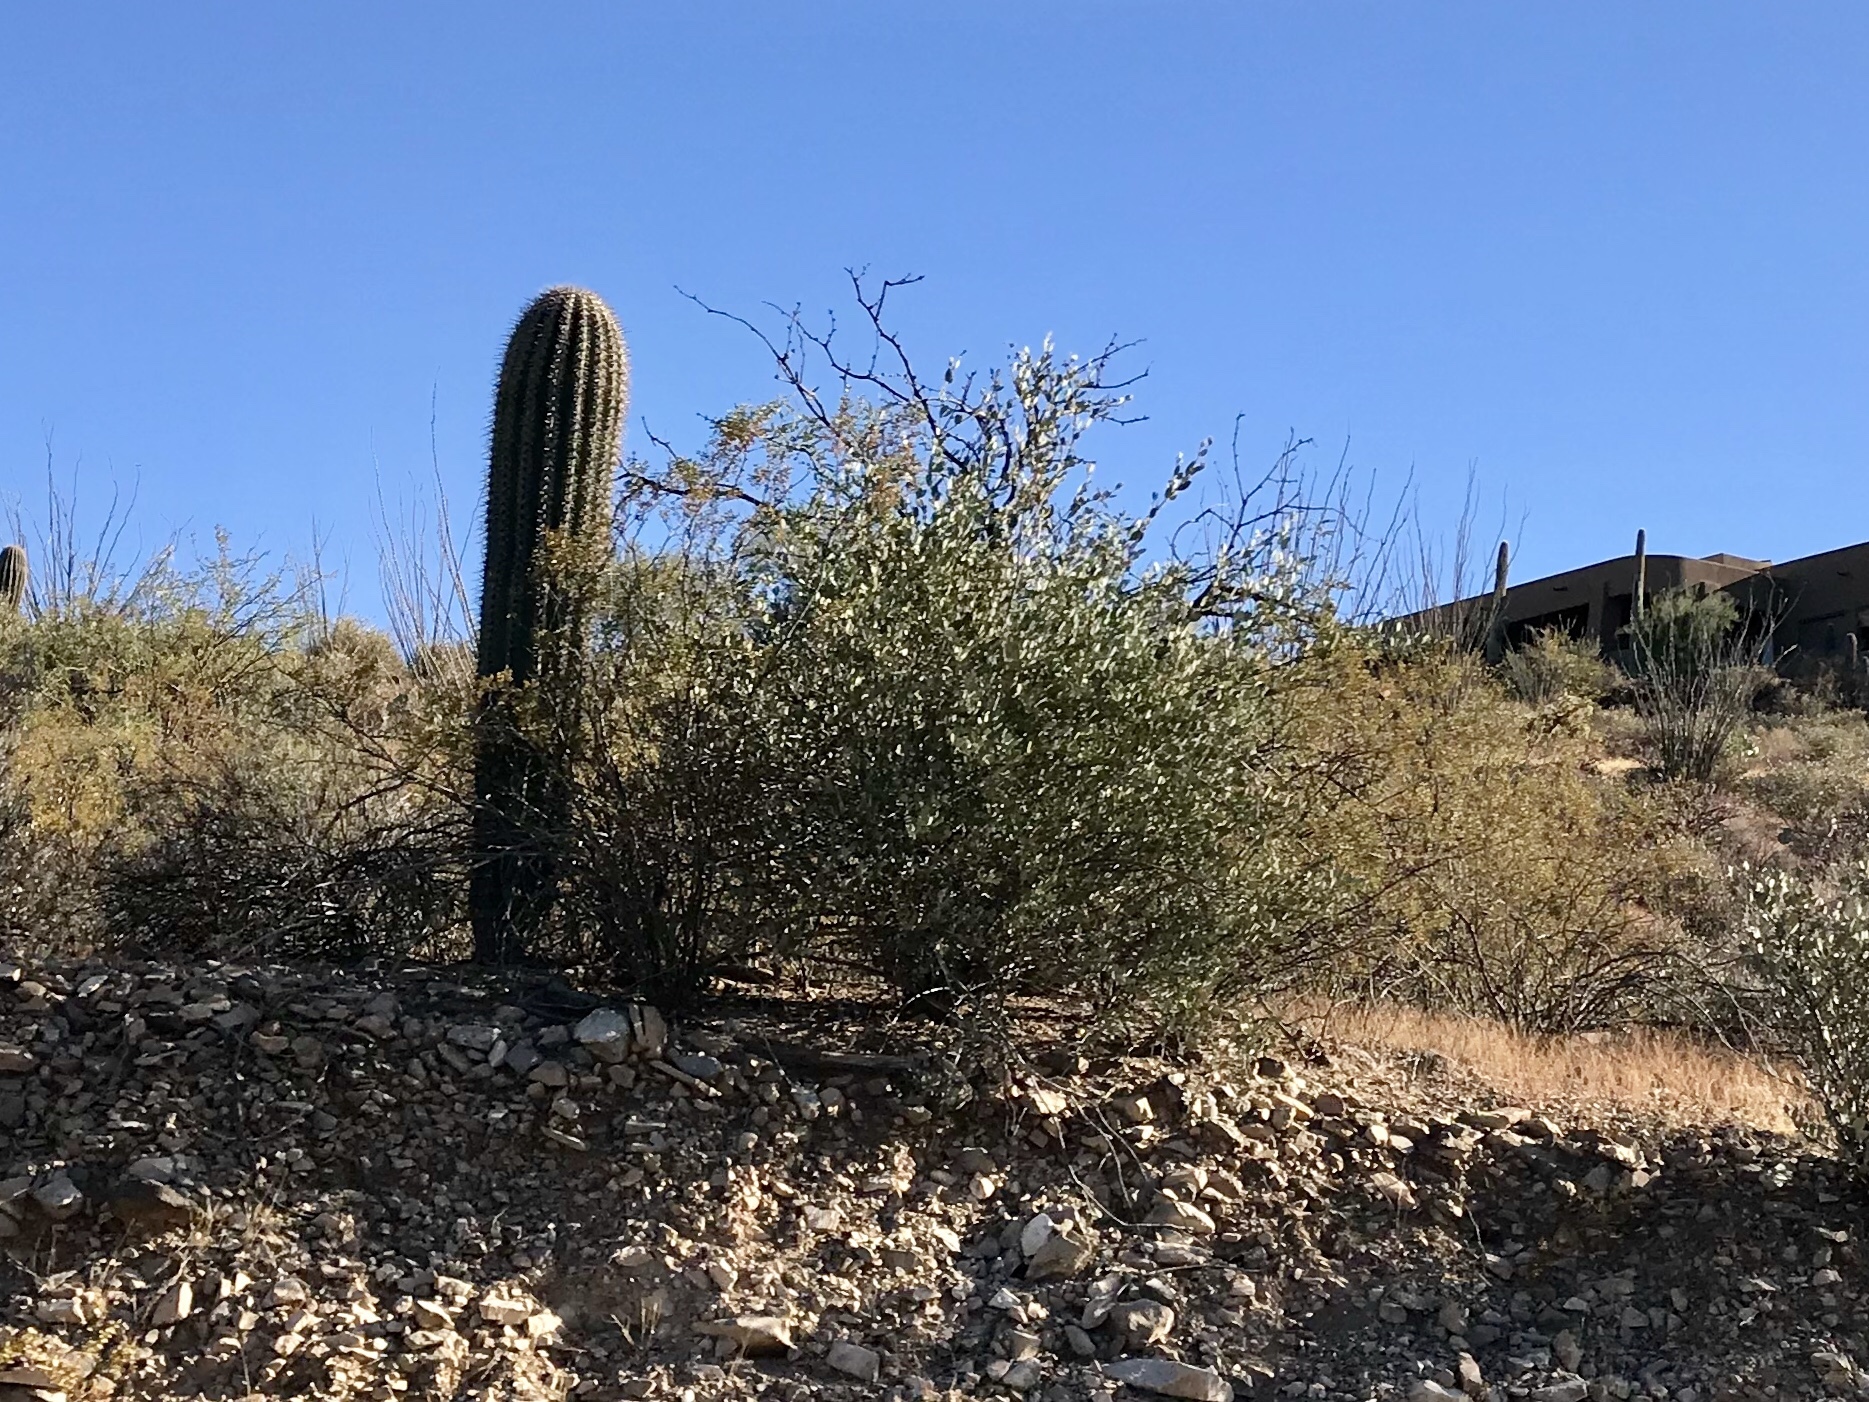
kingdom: Plantae
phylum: Tracheophyta
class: Magnoliopsida
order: Caryophyllales
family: Simmondsiaceae
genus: Simmondsia
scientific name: Simmondsia chinensis
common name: Jojoba
